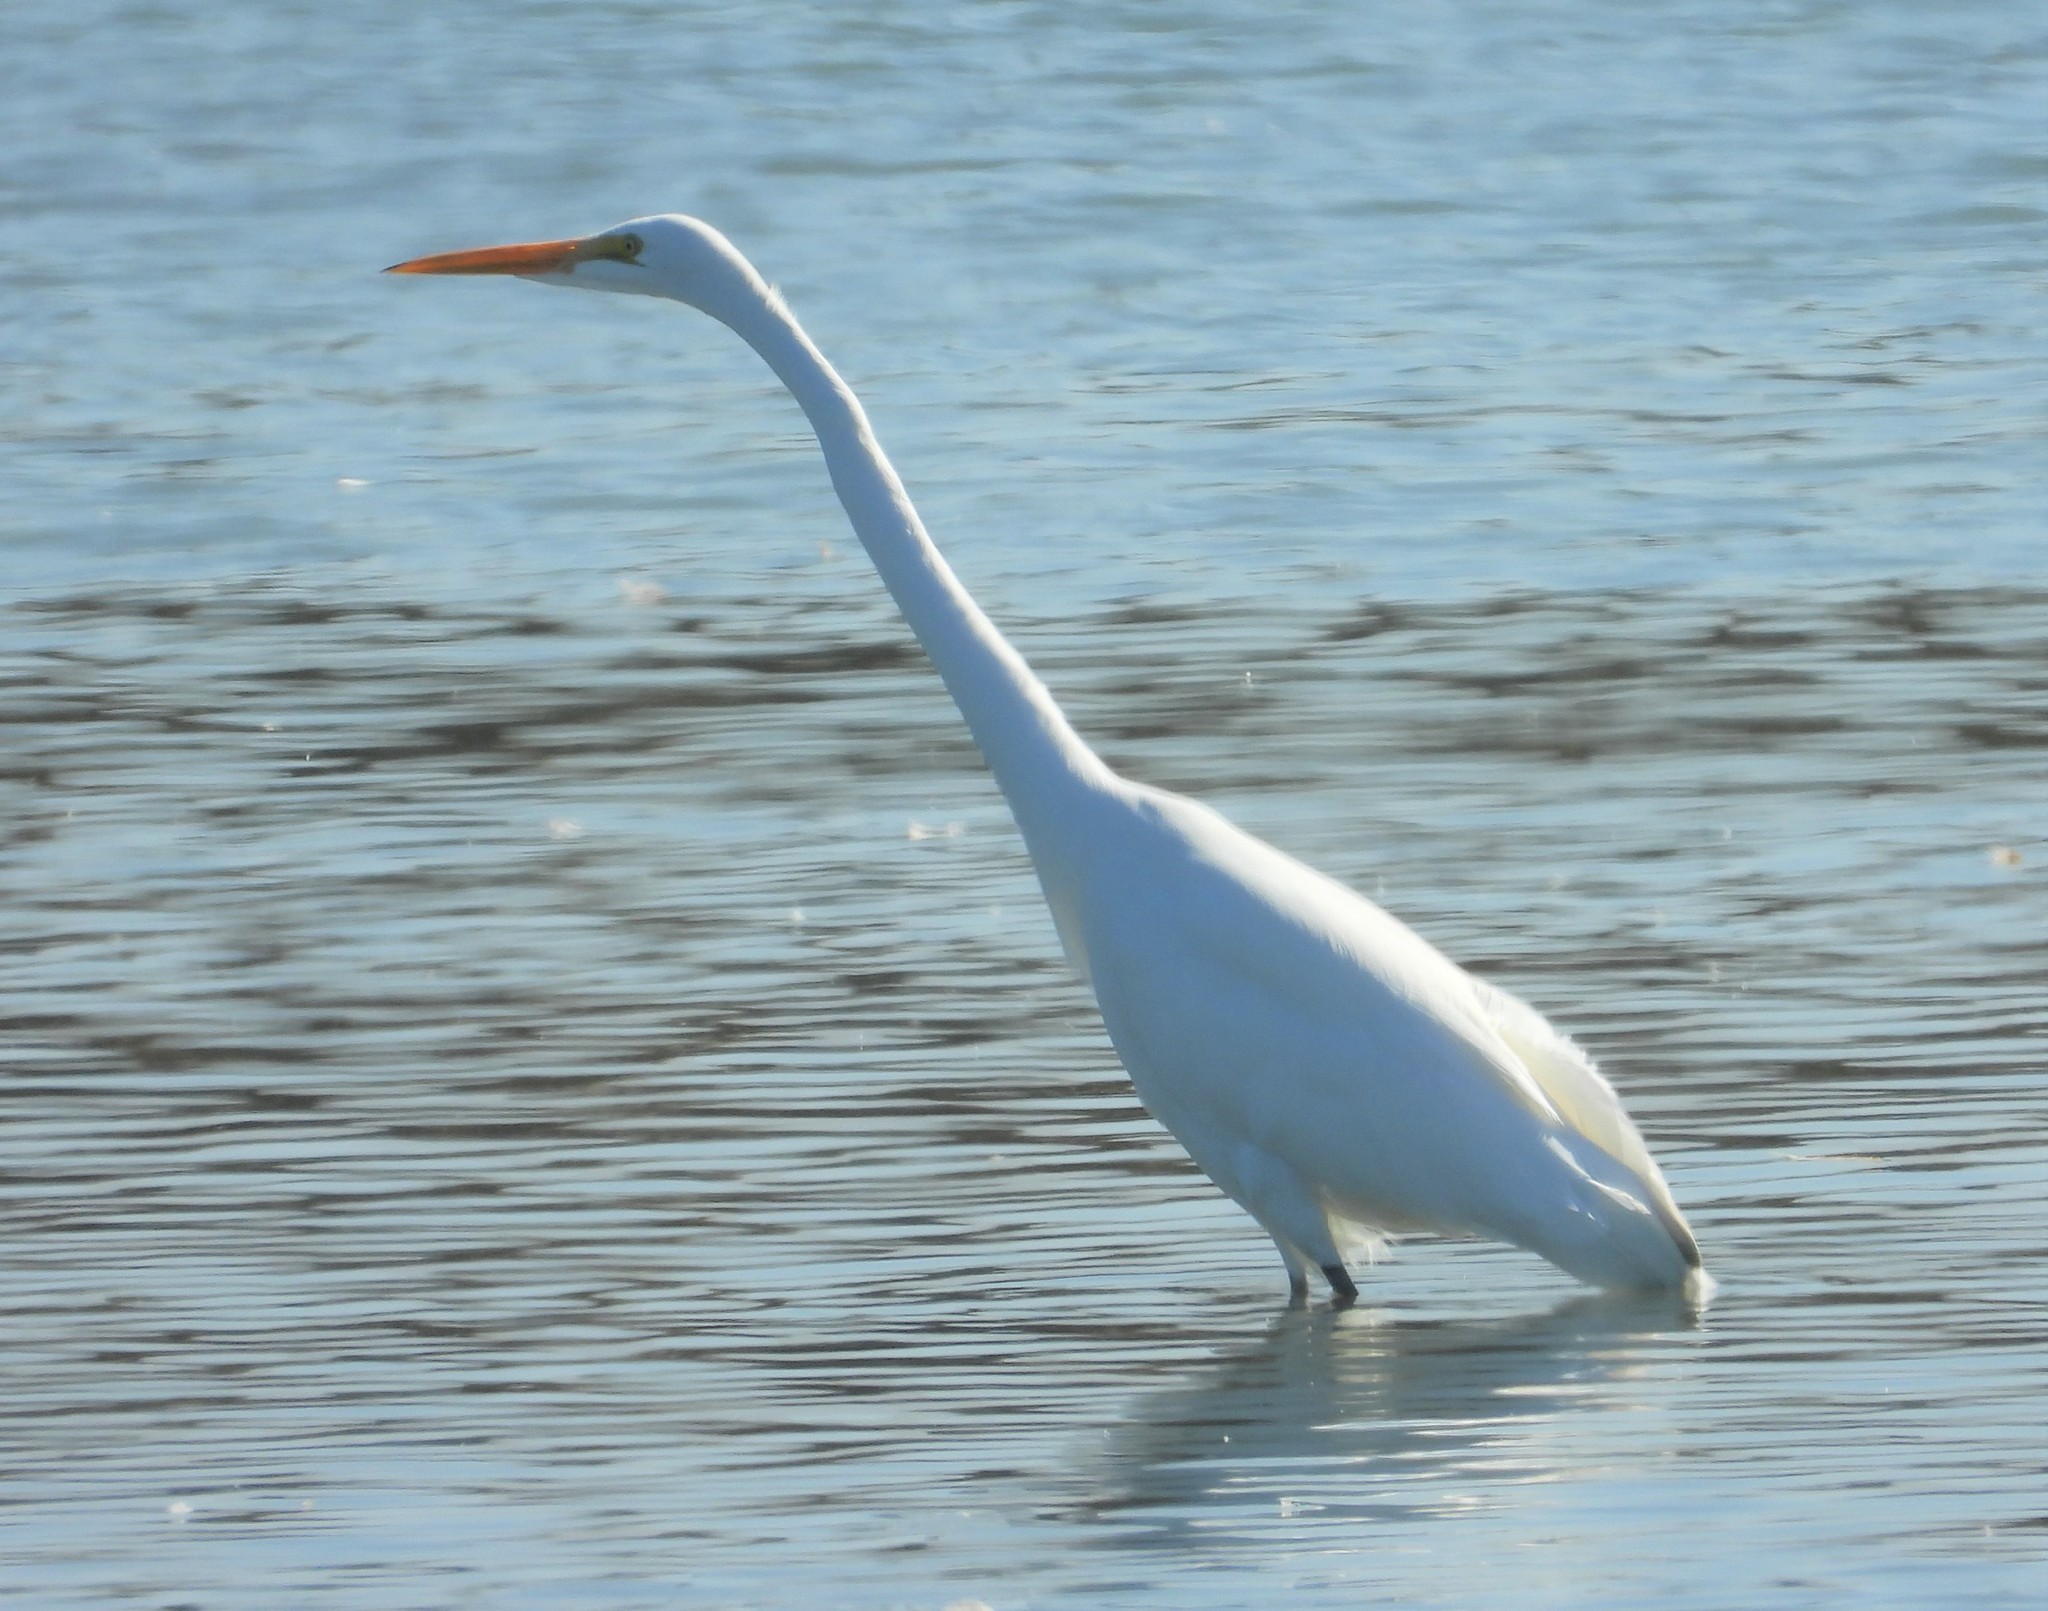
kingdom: Animalia
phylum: Chordata
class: Aves
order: Pelecaniformes
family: Ardeidae
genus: Ardea
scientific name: Ardea alba
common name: Great egret
